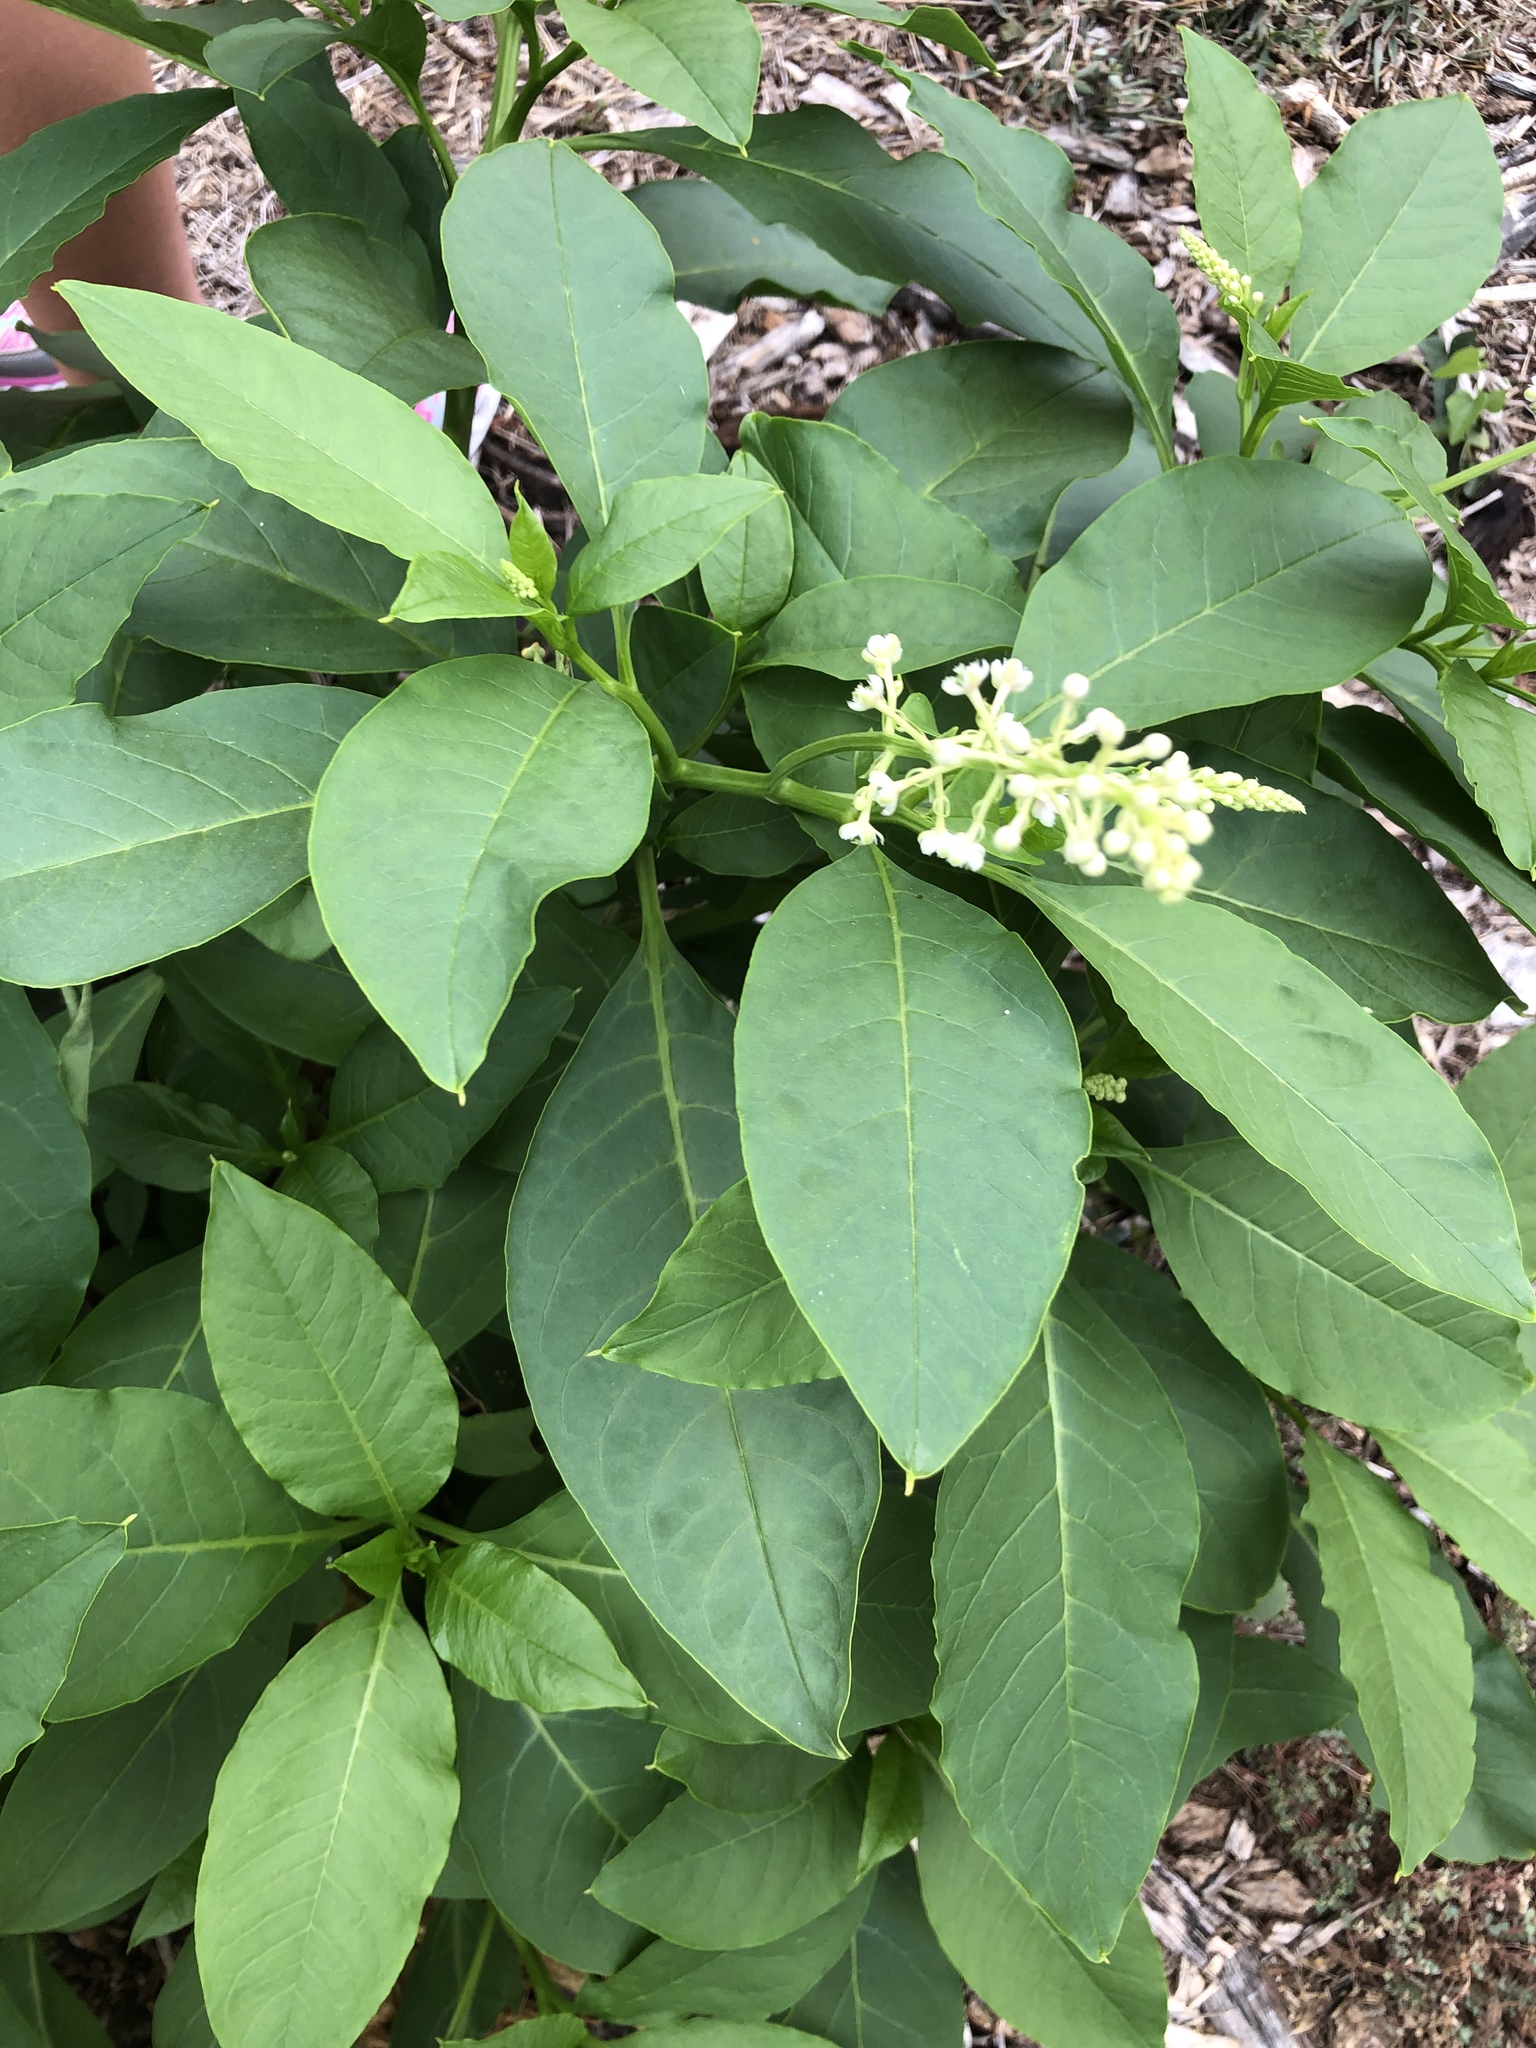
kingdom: Plantae
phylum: Tracheophyta
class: Magnoliopsida
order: Caryophyllales
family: Phytolaccaceae
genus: Phytolacca
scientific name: Phytolacca americana
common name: American pokeweed
